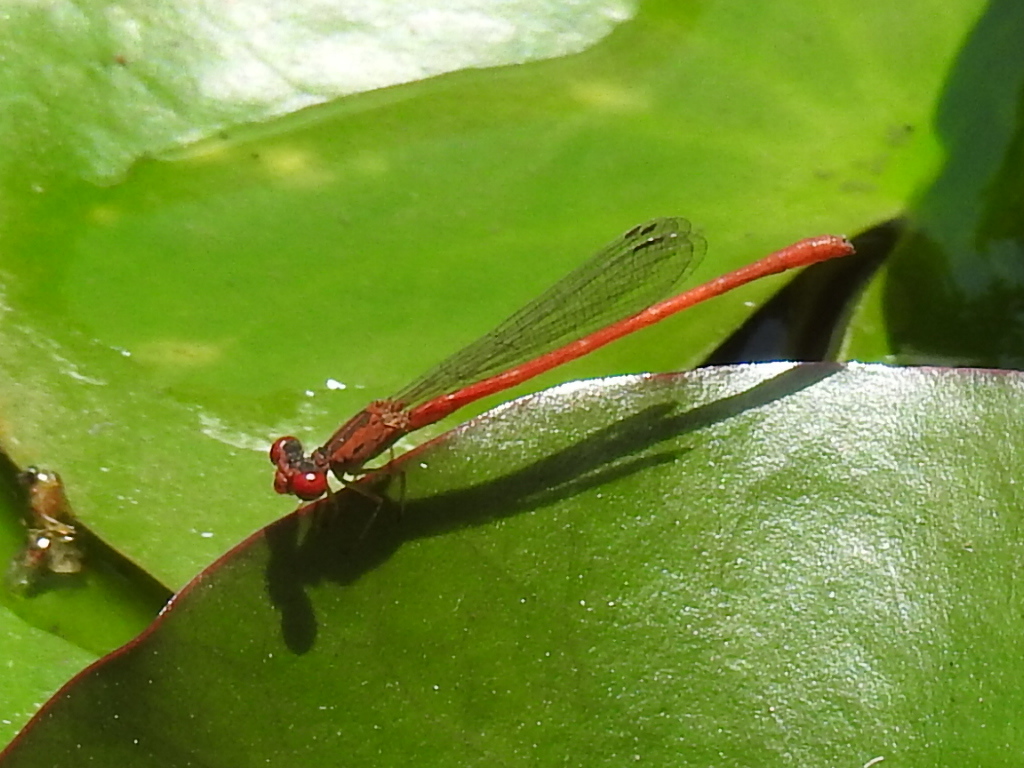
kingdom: Animalia
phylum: Arthropoda
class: Insecta
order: Odonata
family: Coenagrionidae
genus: Telebasis
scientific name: Telebasis salva
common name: Desert firetail
